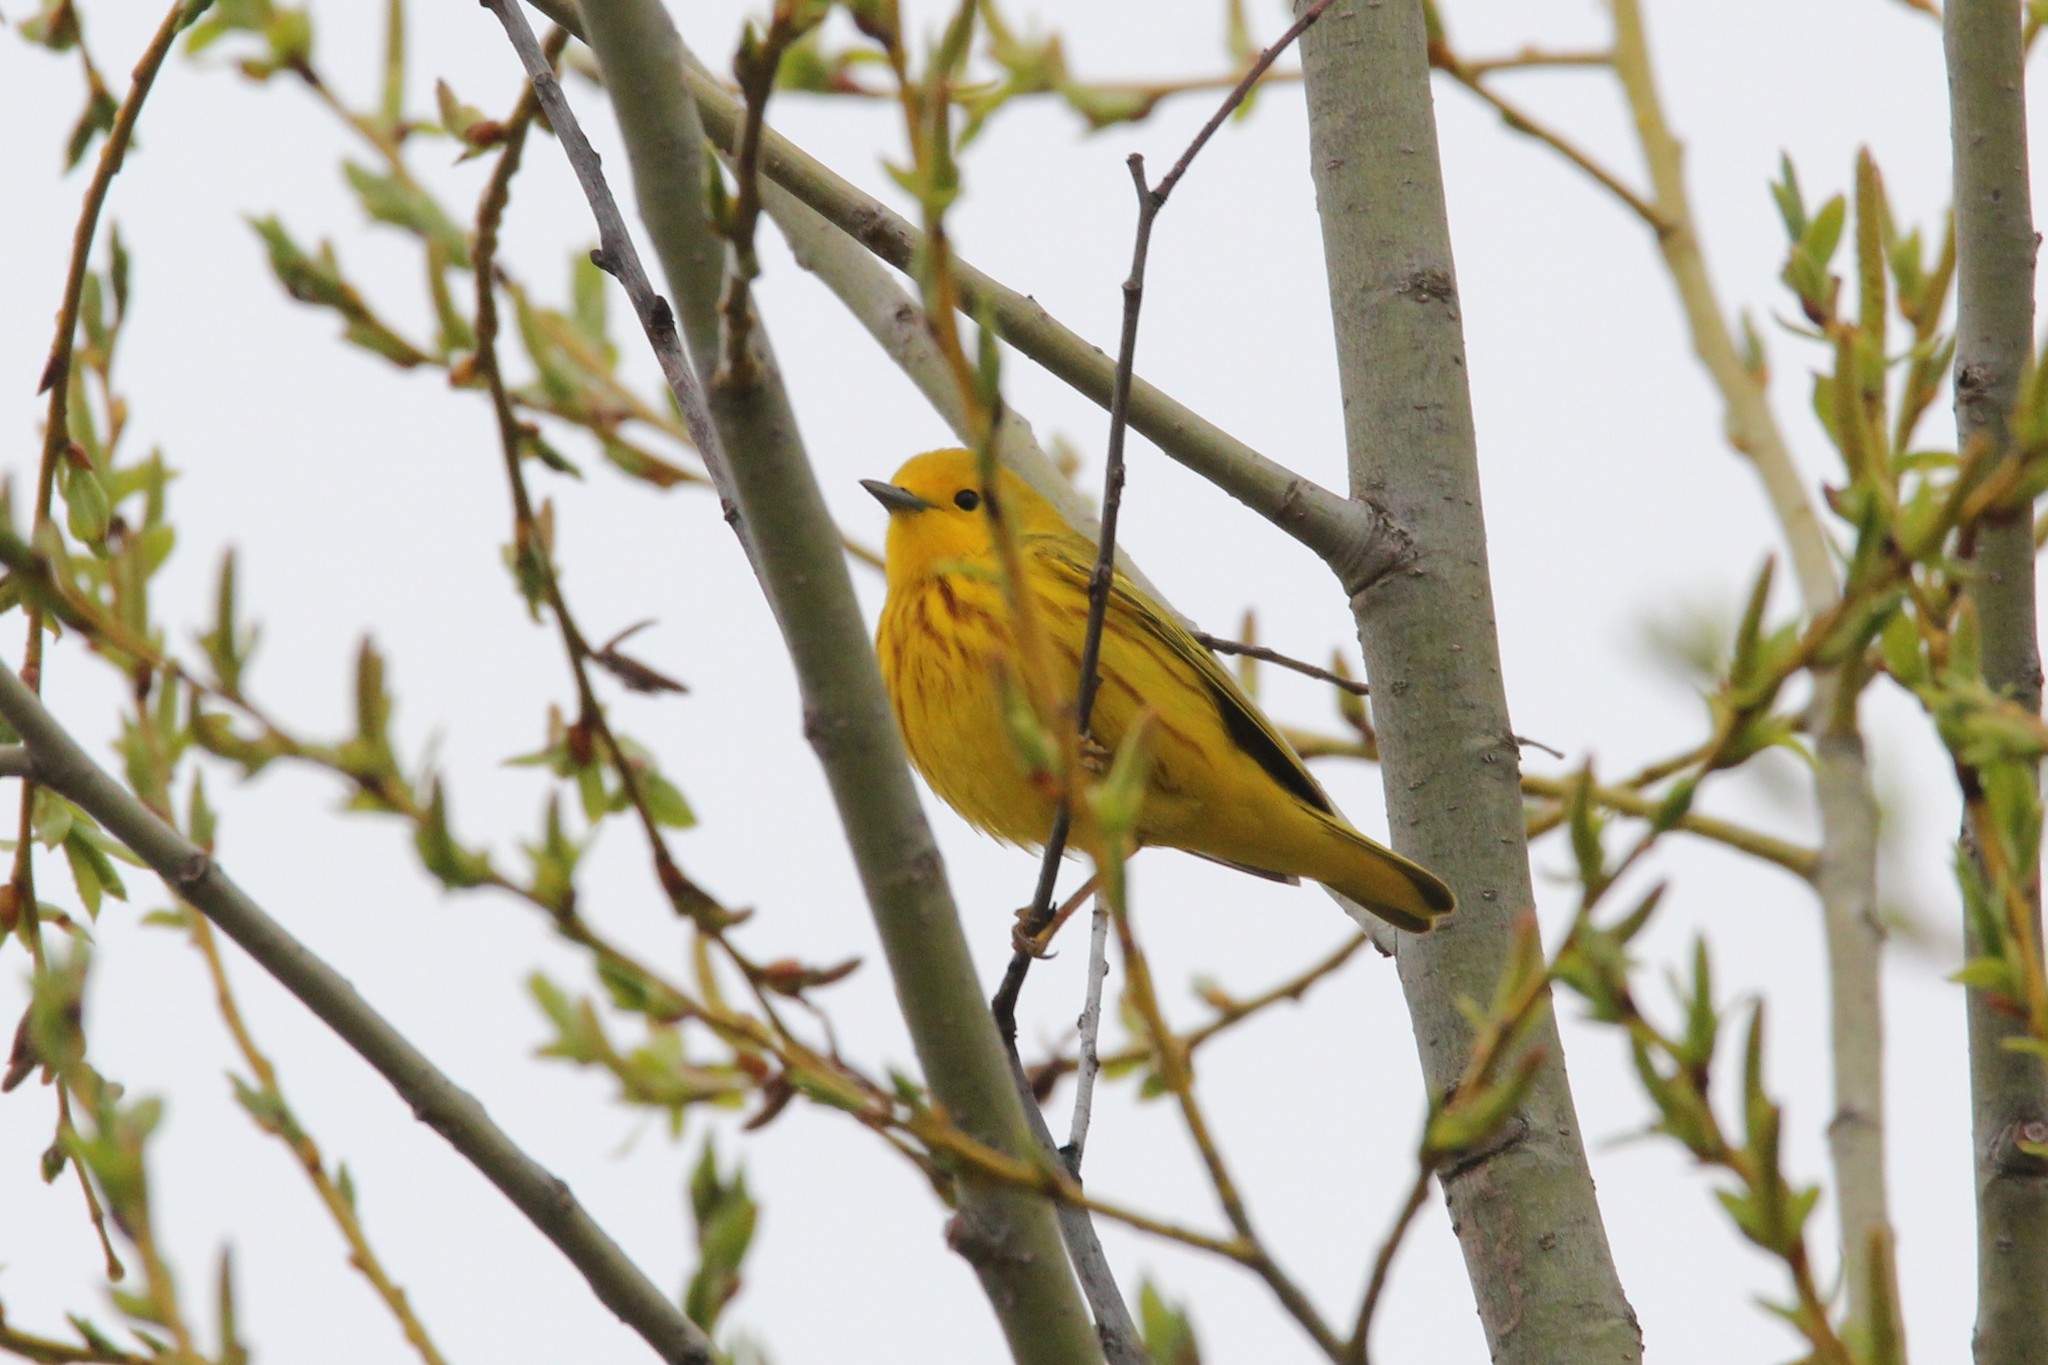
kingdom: Animalia
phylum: Chordata
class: Aves
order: Passeriformes
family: Parulidae
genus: Setophaga
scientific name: Setophaga petechia
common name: Yellow warbler
